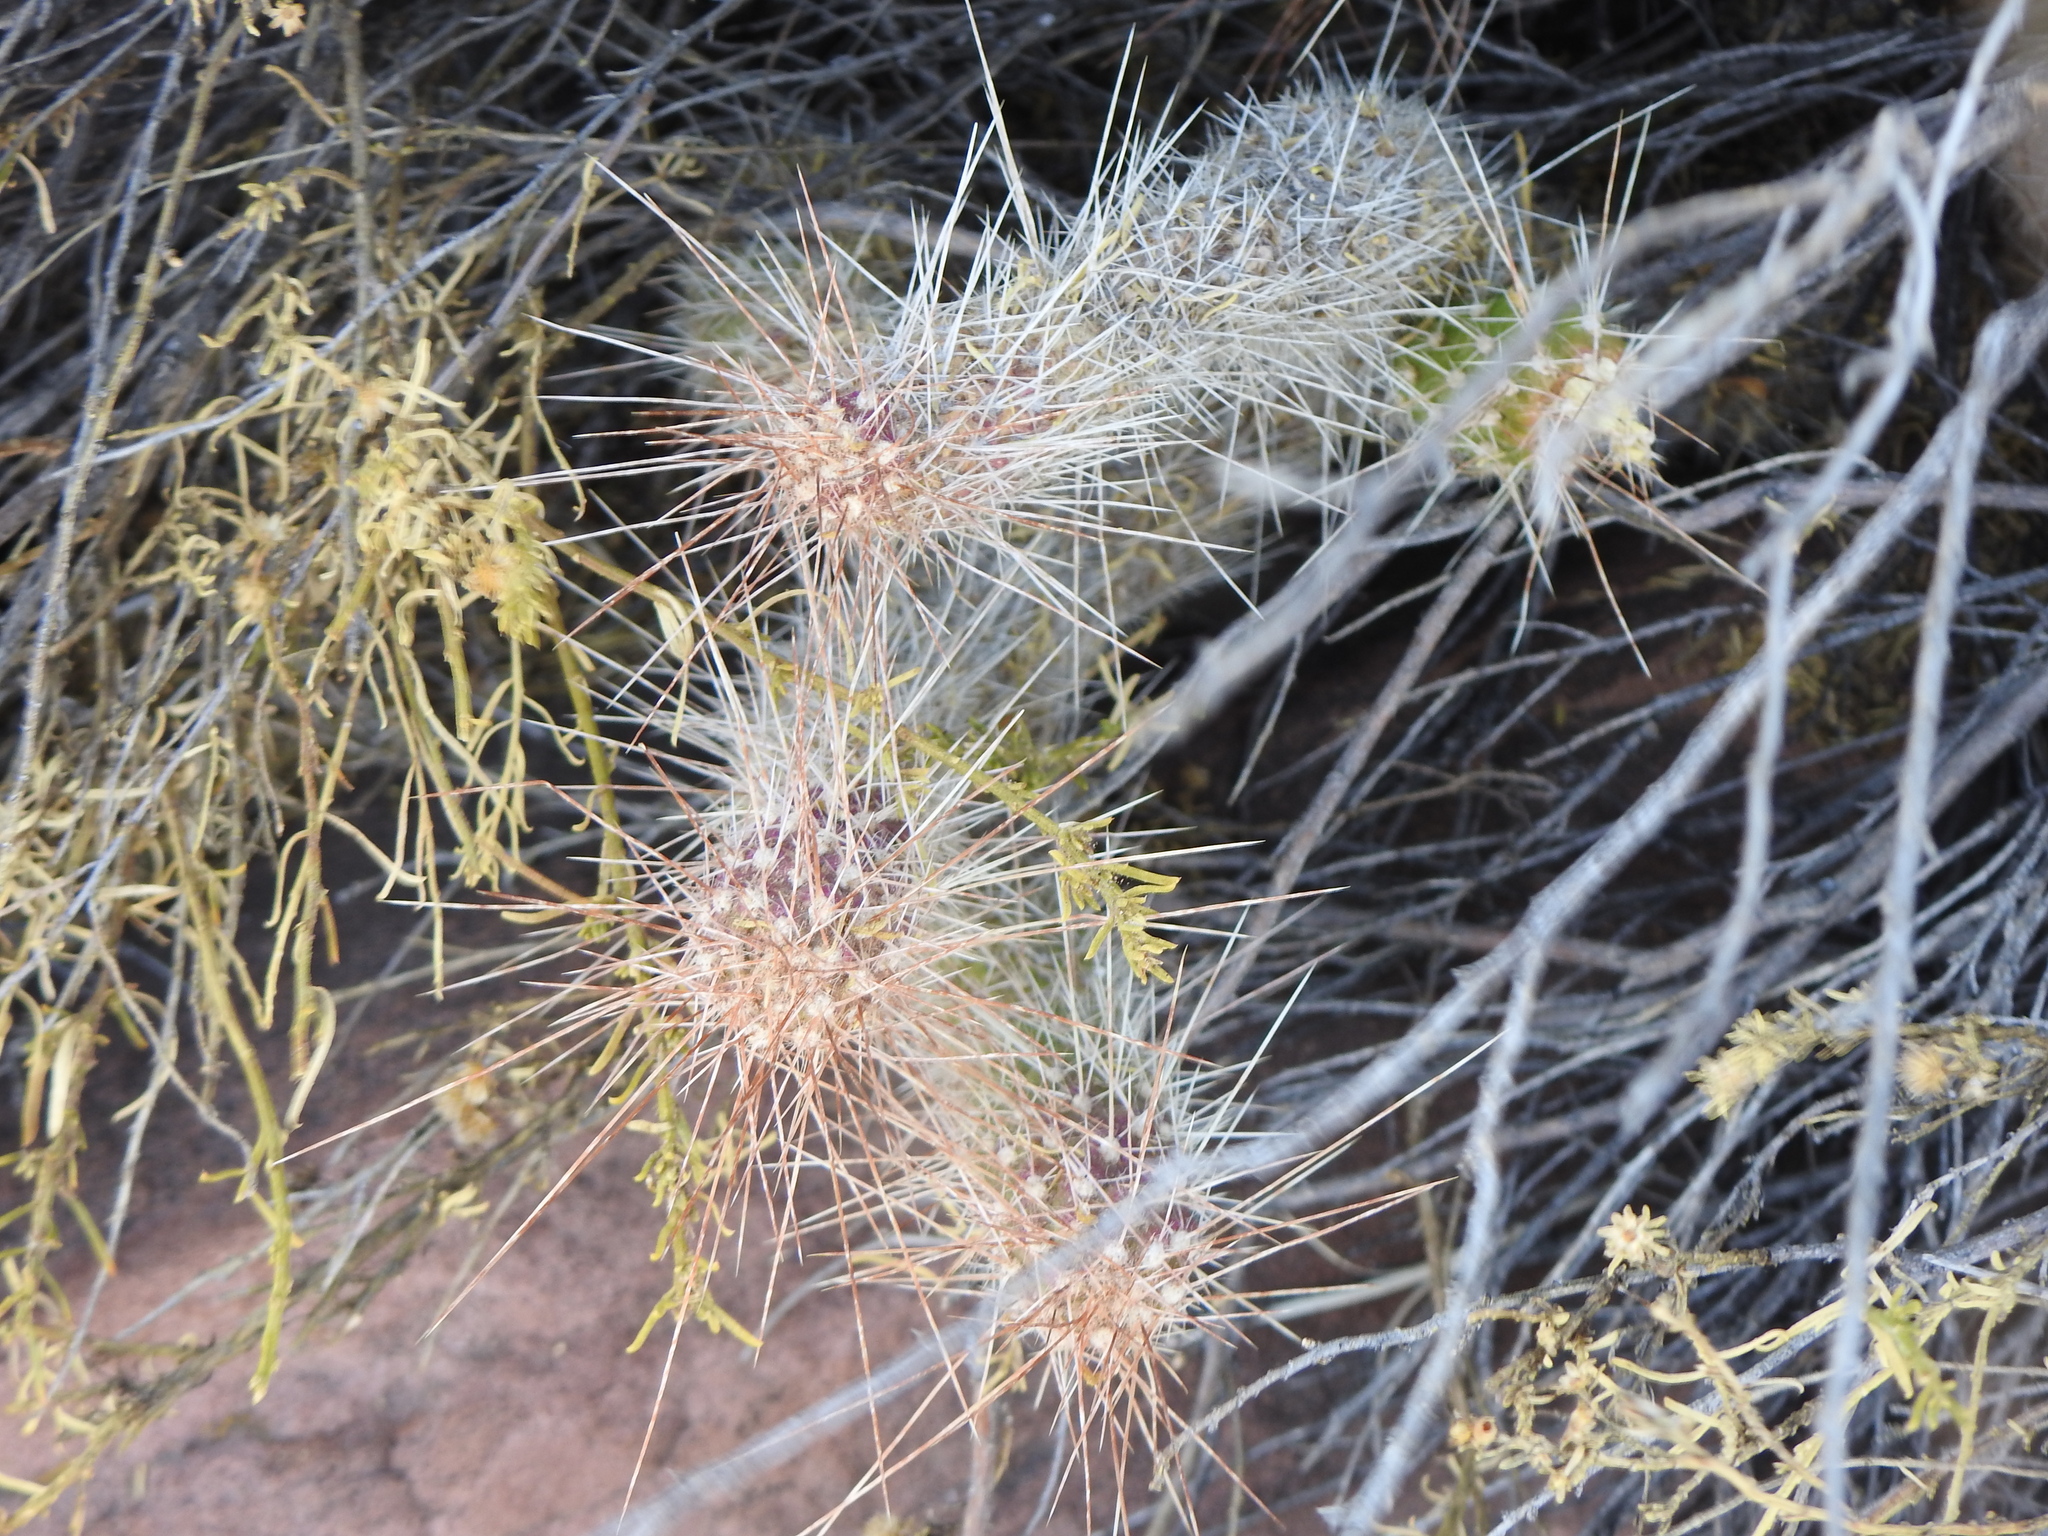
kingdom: Plantae
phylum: Tracheophyta
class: Magnoliopsida
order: Caryophyllales
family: Cactaceae
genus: Austrocylindropuntia
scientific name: Austrocylindropuntia shaferi
